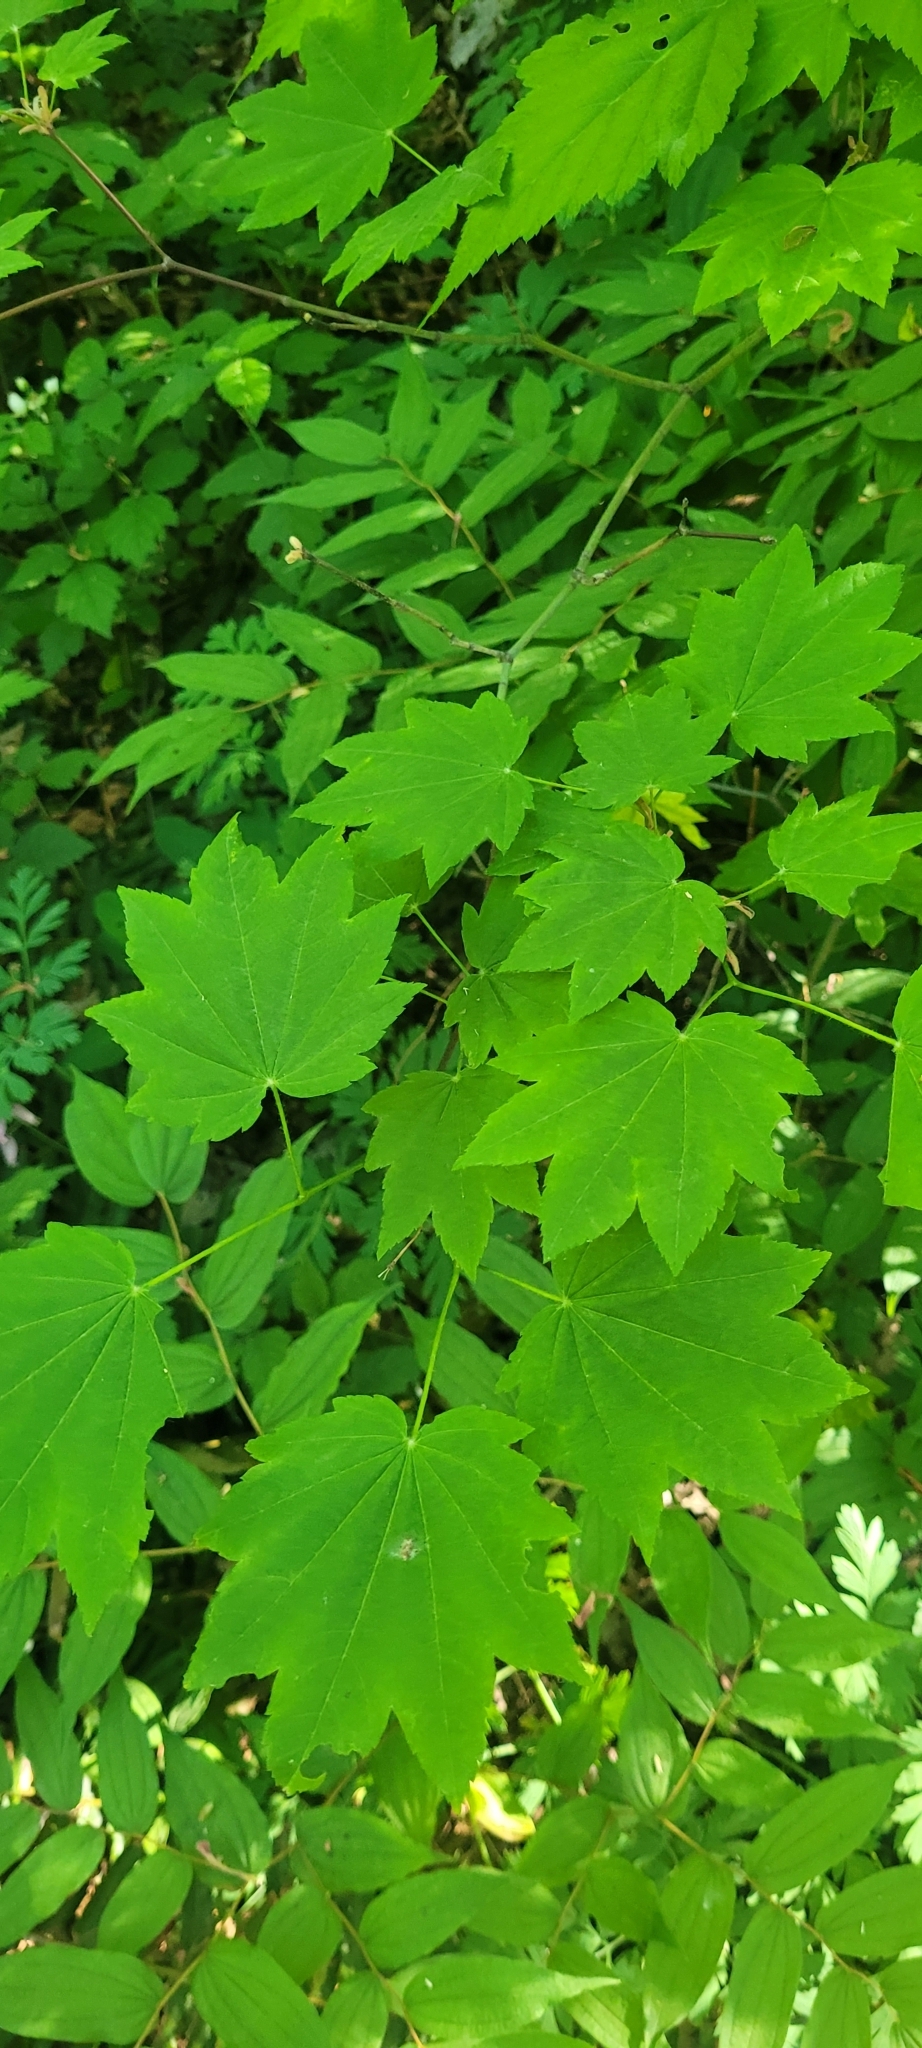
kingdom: Plantae
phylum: Tracheophyta
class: Magnoliopsida
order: Sapindales
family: Sapindaceae
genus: Acer
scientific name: Acer circinatum
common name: Vine maple
